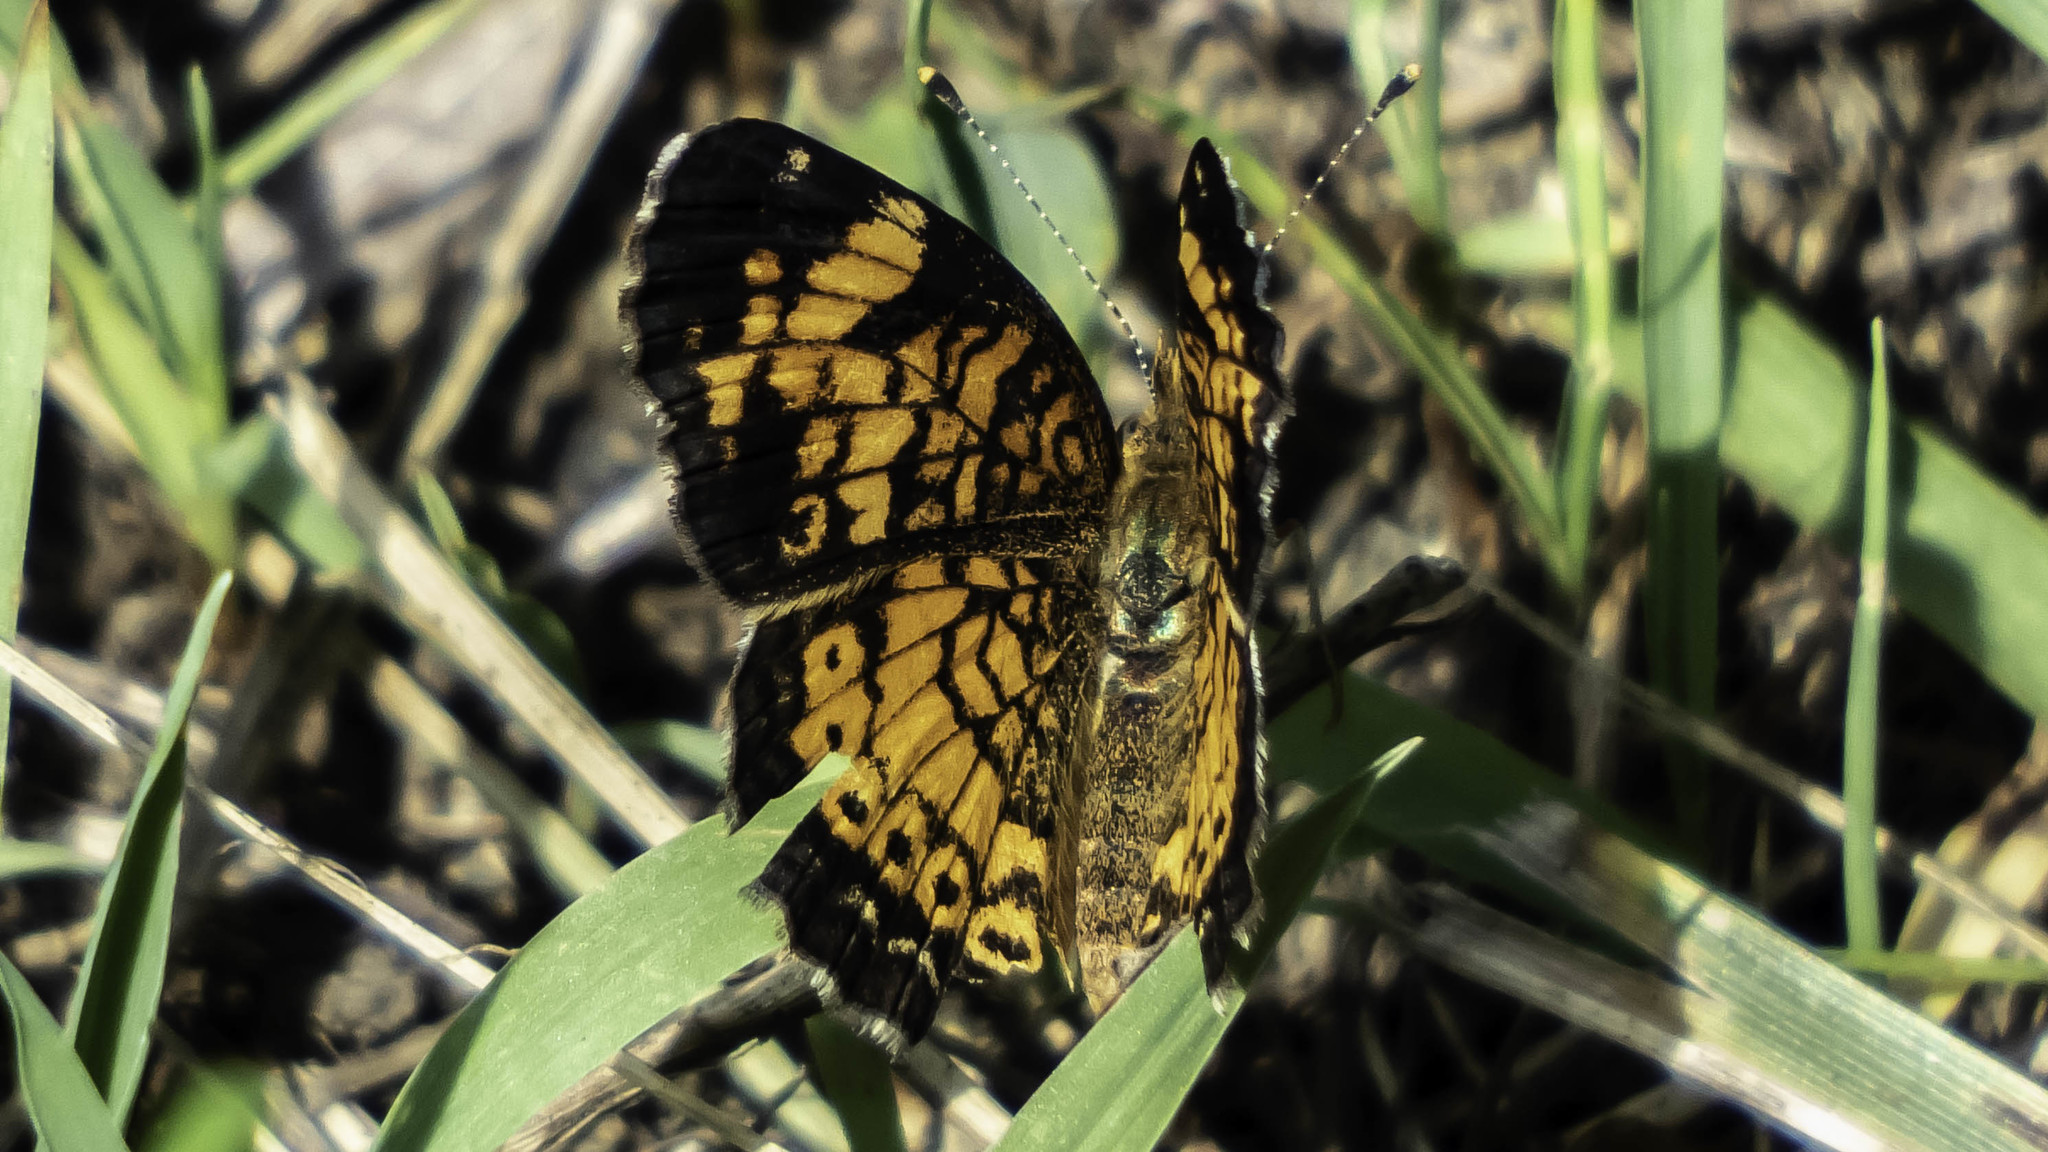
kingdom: Animalia
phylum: Arthropoda
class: Insecta
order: Lepidoptera
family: Nymphalidae
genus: Phyciodes
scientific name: Phyciodes tharos
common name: Pearl crescent
